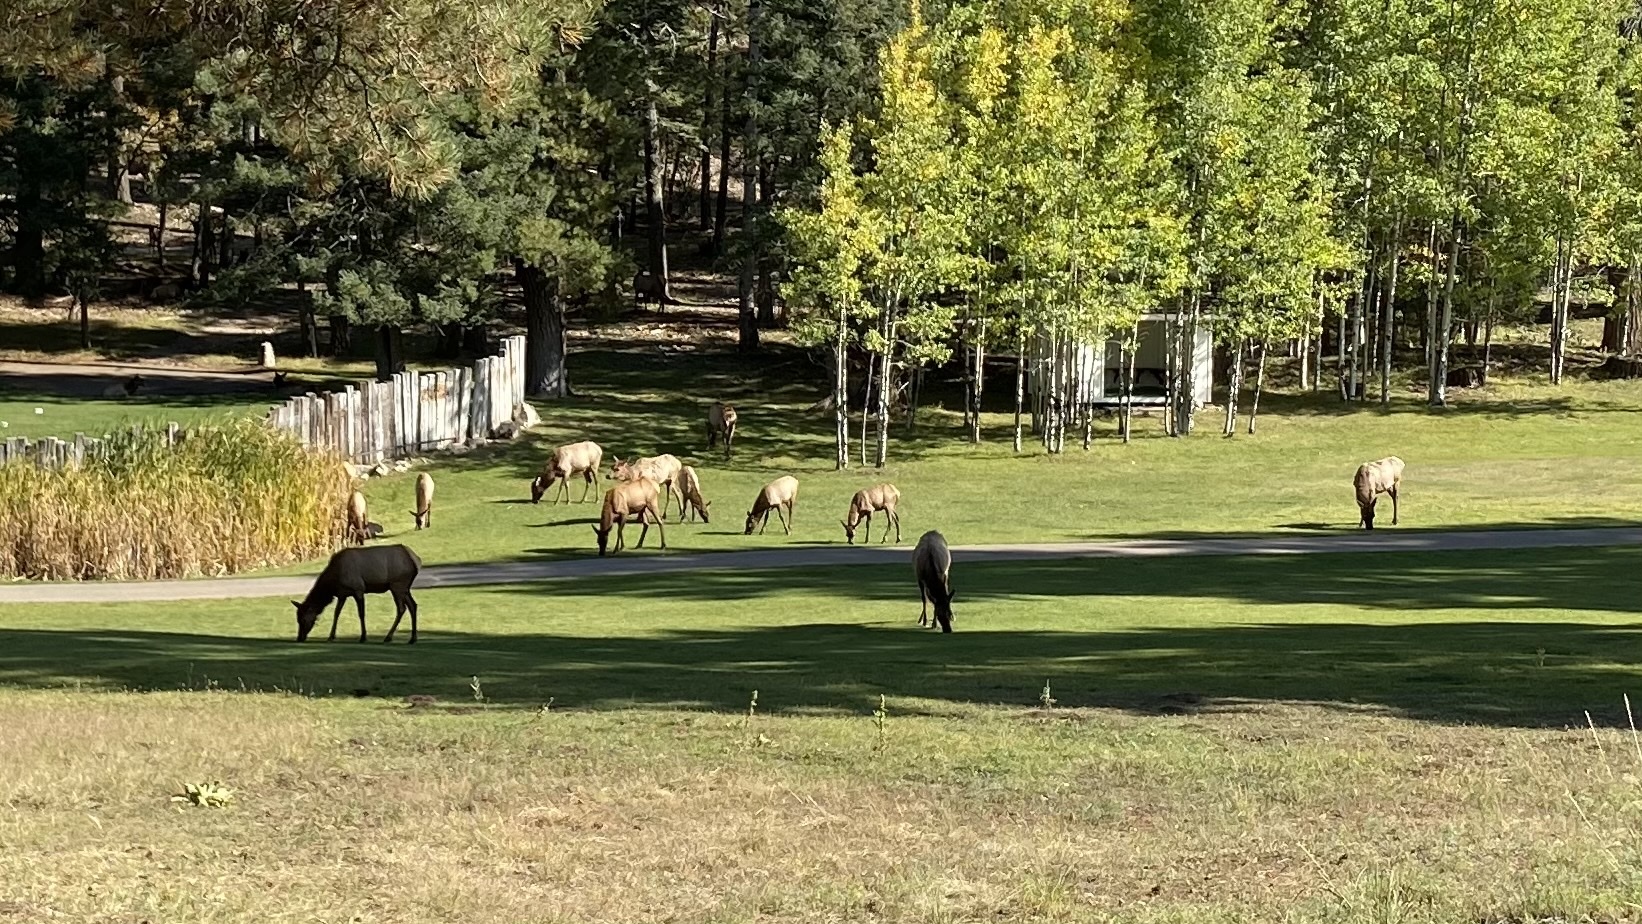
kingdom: Animalia
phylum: Chordata
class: Mammalia
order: Artiodactyla
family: Cervidae
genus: Cervus
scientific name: Cervus elaphus
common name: Red deer
